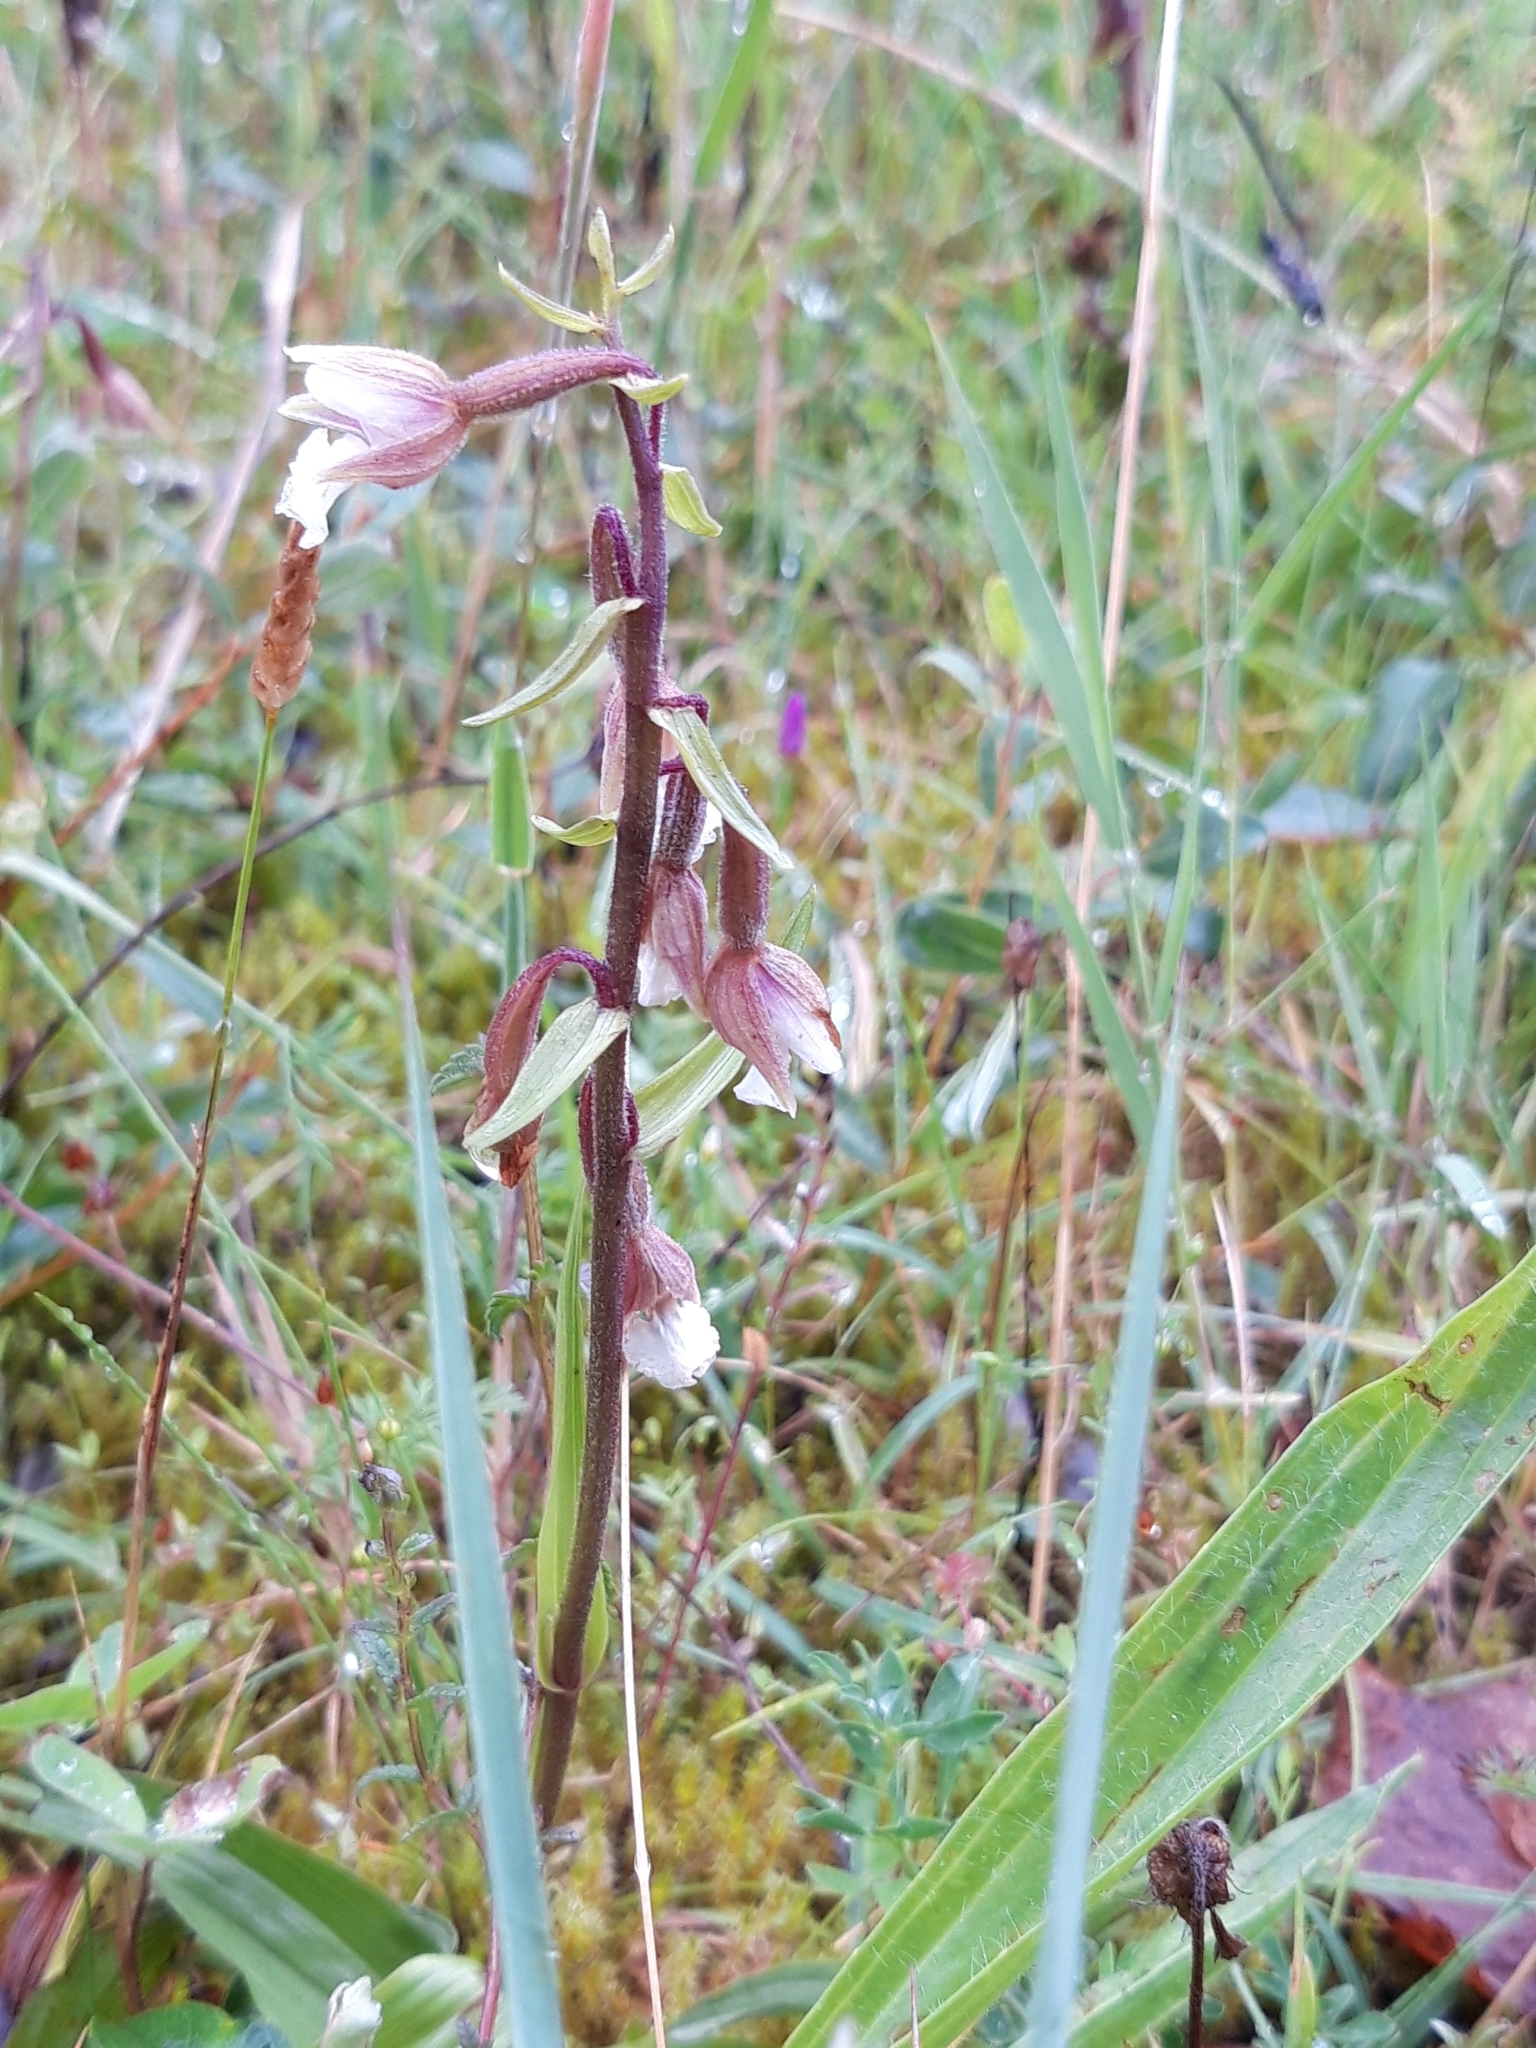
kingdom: Plantae
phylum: Tracheophyta
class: Liliopsida
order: Asparagales
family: Orchidaceae
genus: Epipactis
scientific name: Epipactis palustris
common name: Marsh helleborine
